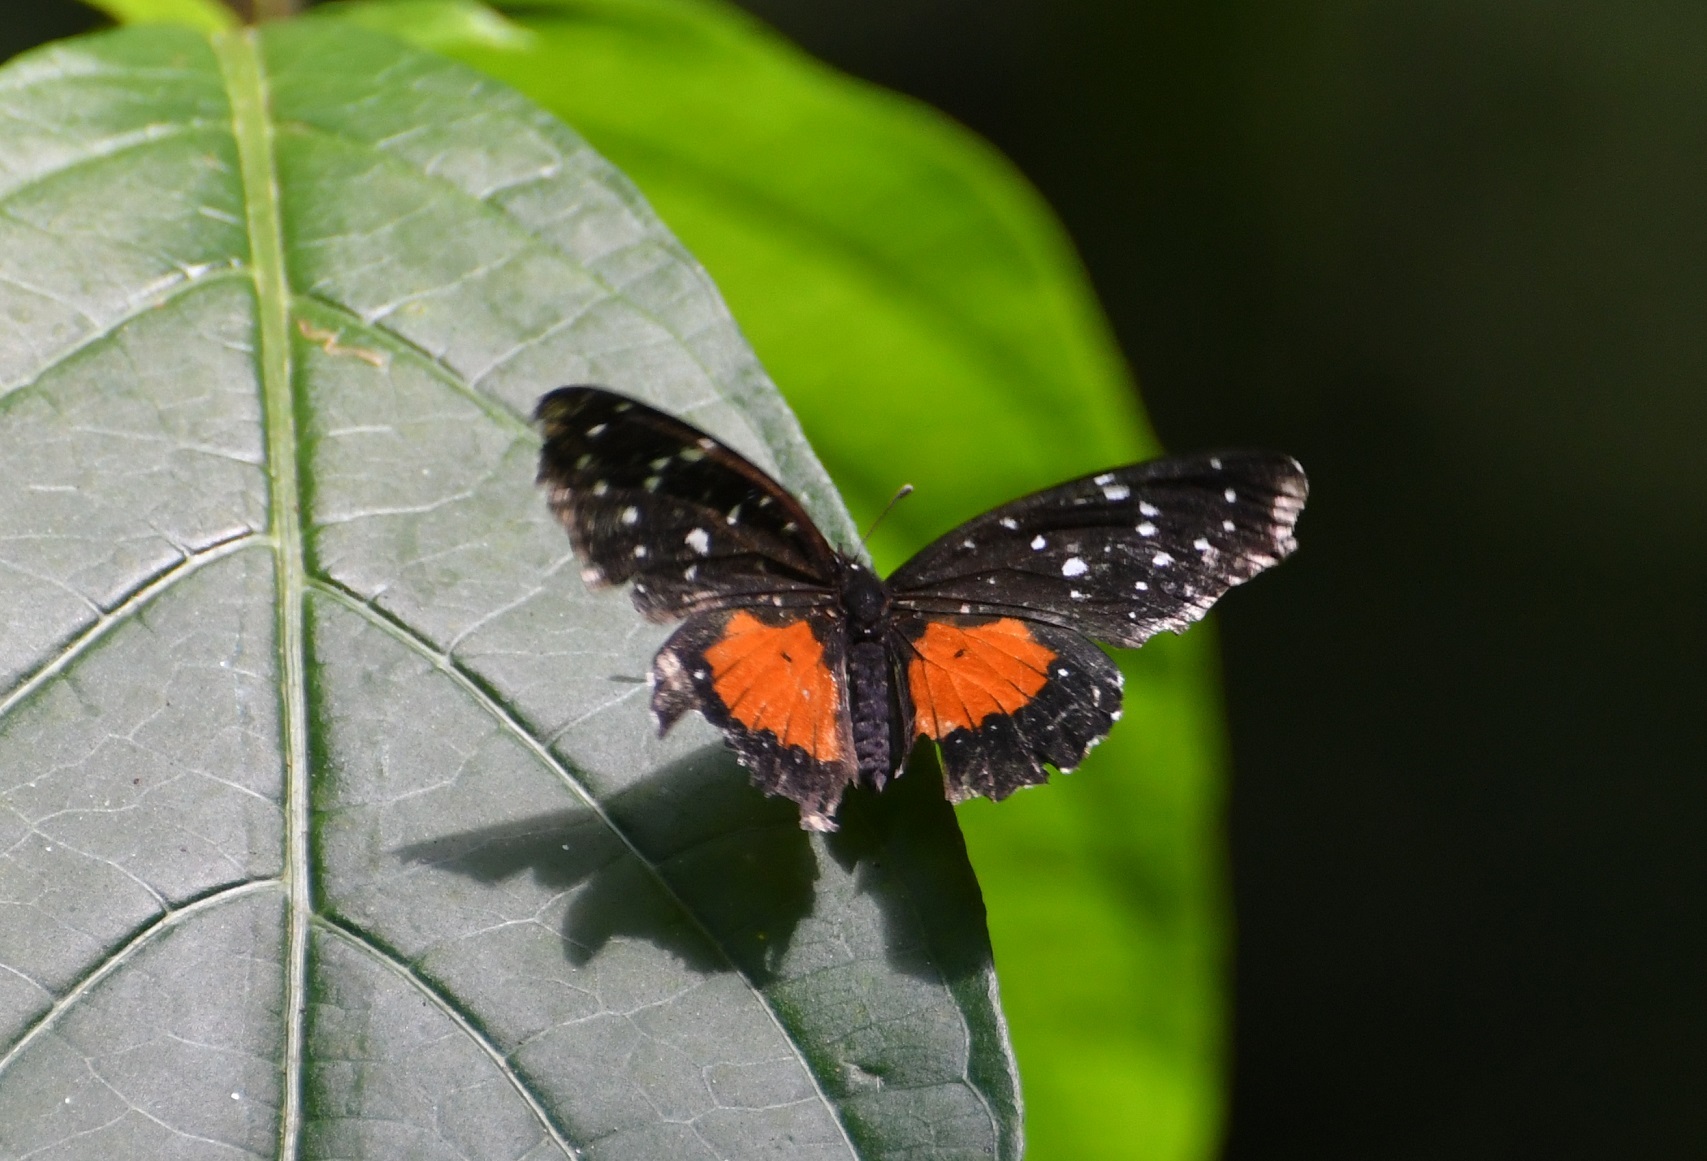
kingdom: Animalia
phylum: Arthropoda
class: Insecta
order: Lepidoptera
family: Nymphalidae
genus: Chlosyne
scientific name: Chlosyne janais
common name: Crimson patch
